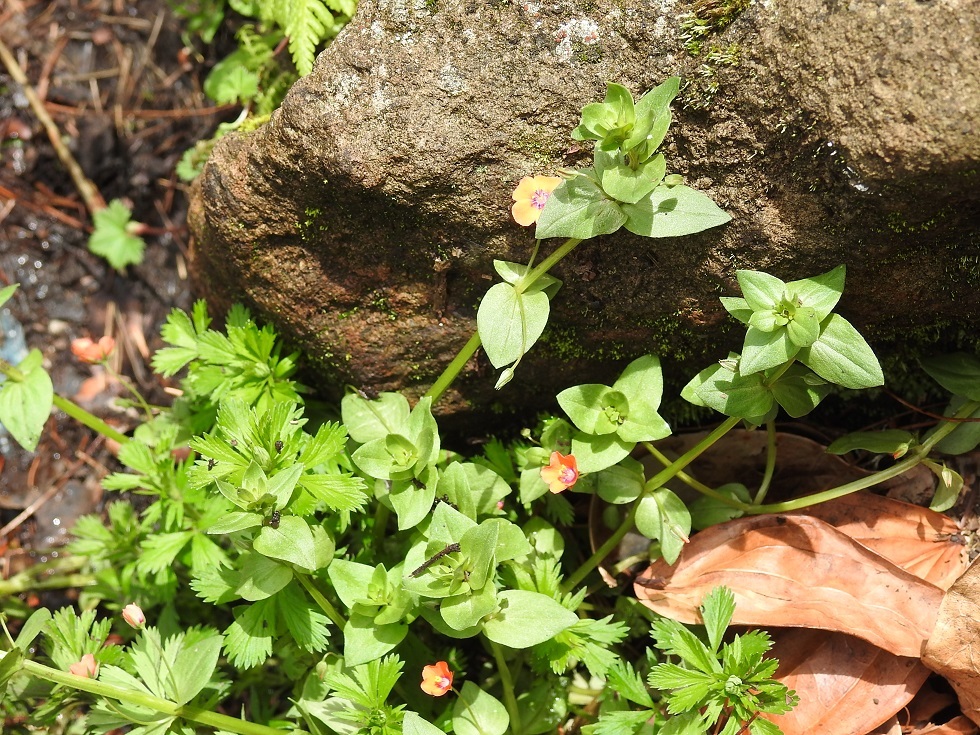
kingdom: Plantae
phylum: Tracheophyta
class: Magnoliopsida
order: Ericales
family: Primulaceae
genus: Lysimachia
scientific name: Lysimachia arvensis
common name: Scarlet pimpernel
